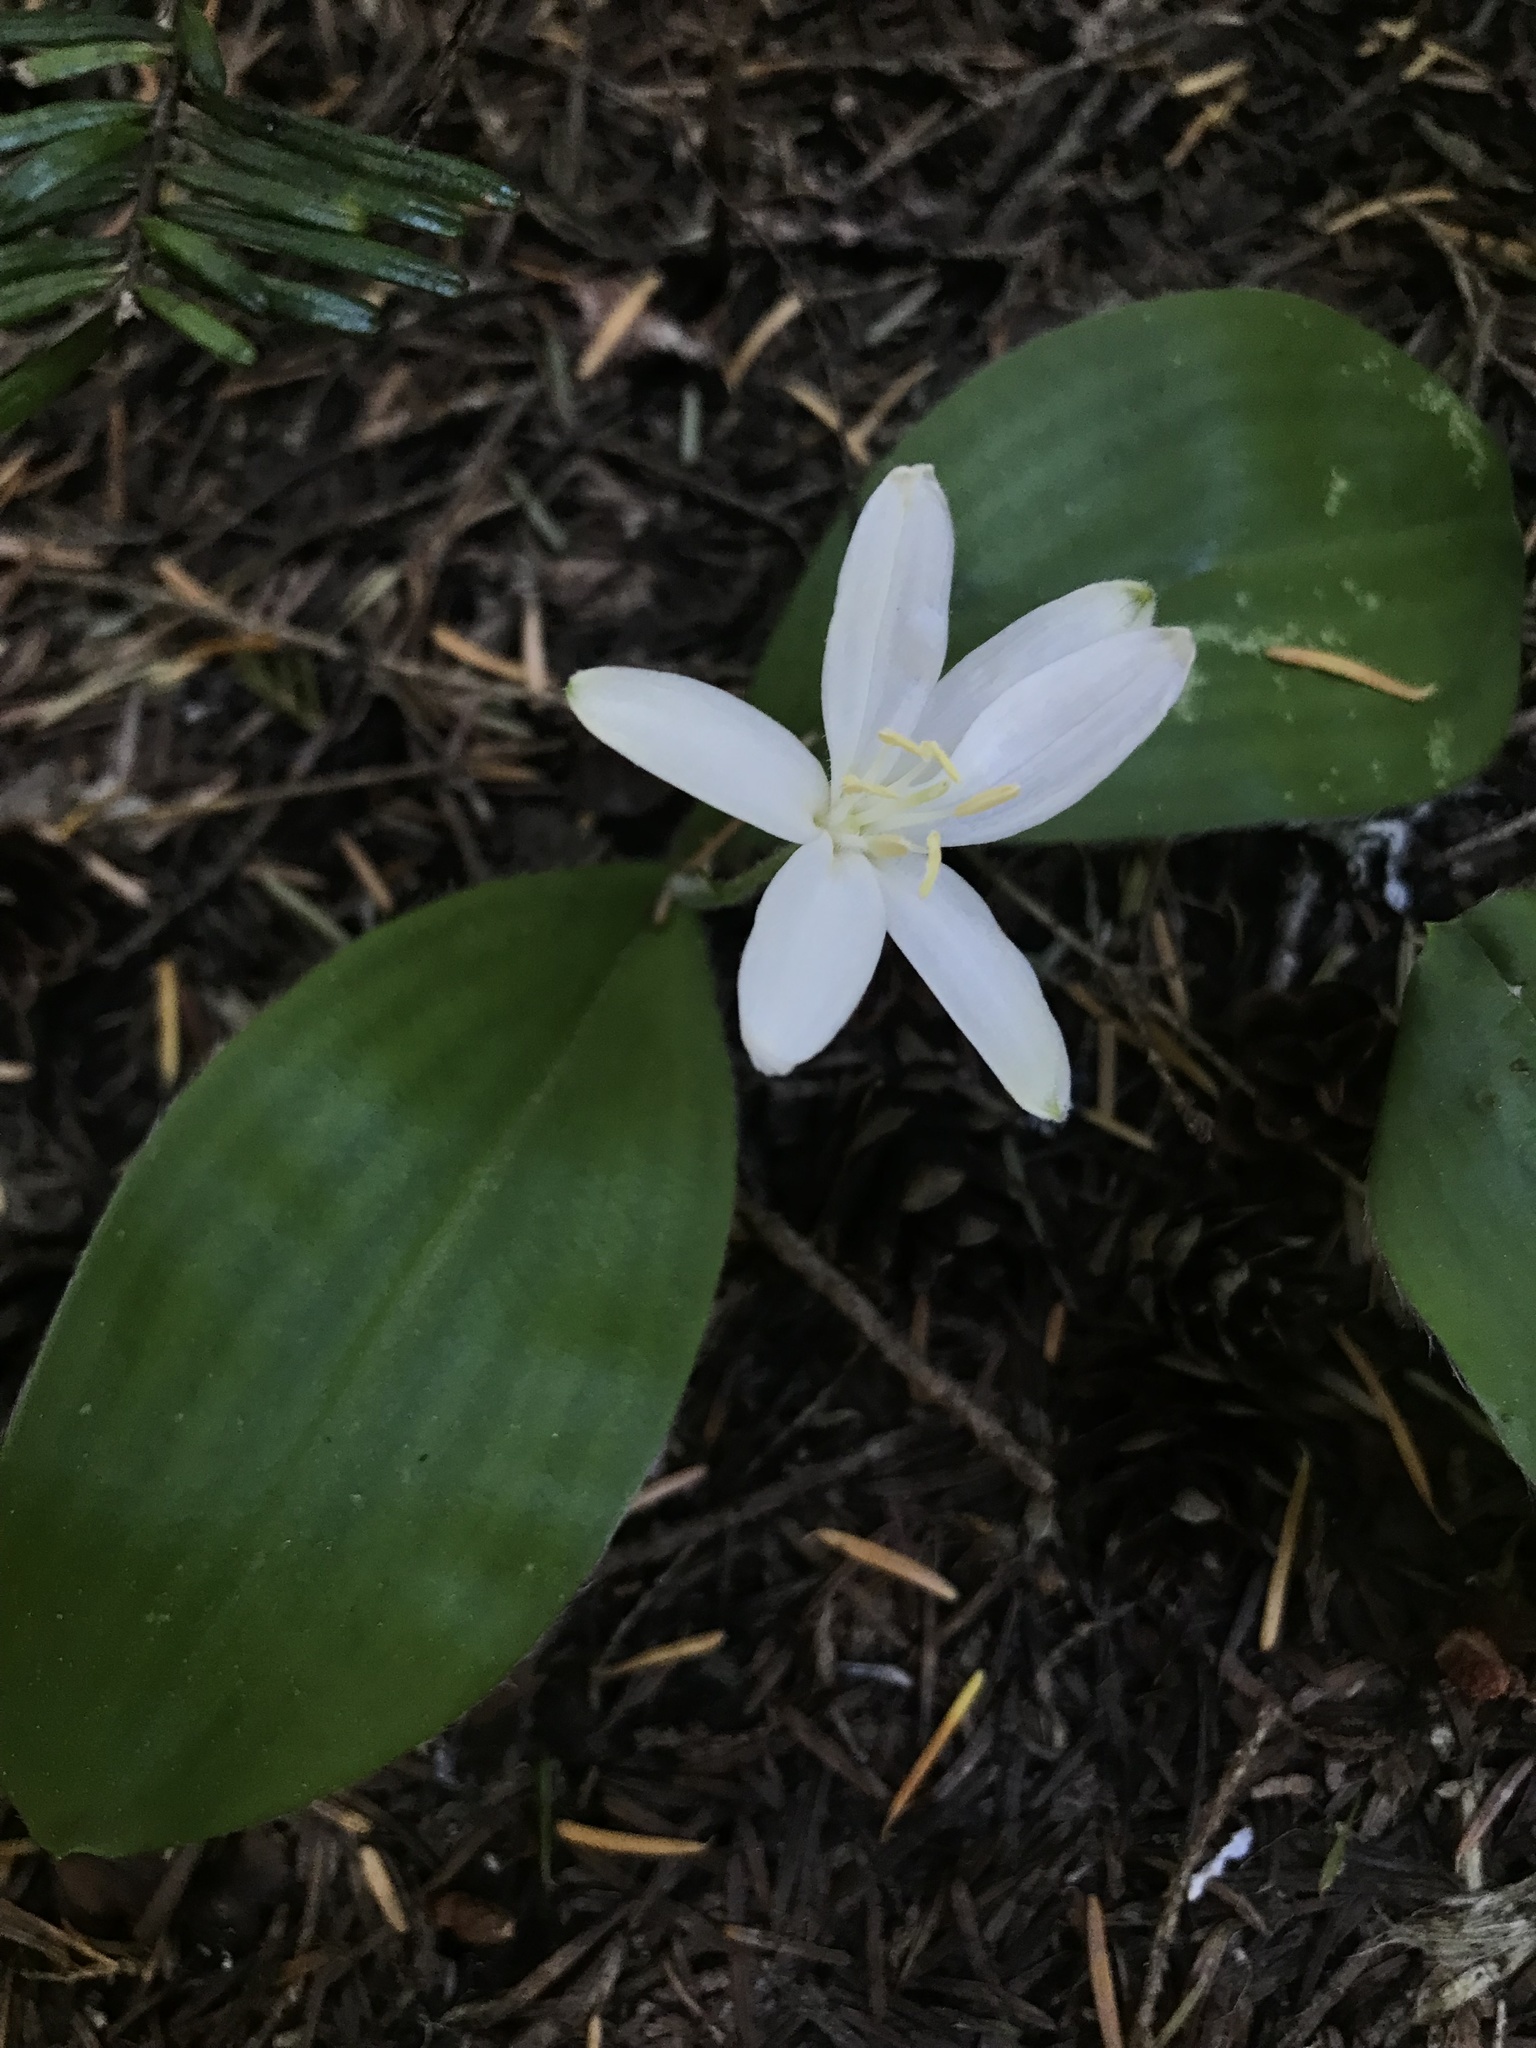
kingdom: Plantae
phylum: Tracheophyta
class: Liliopsida
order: Liliales
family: Liliaceae
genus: Clintonia
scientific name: Clintonia uniflora
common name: Queen's cup
